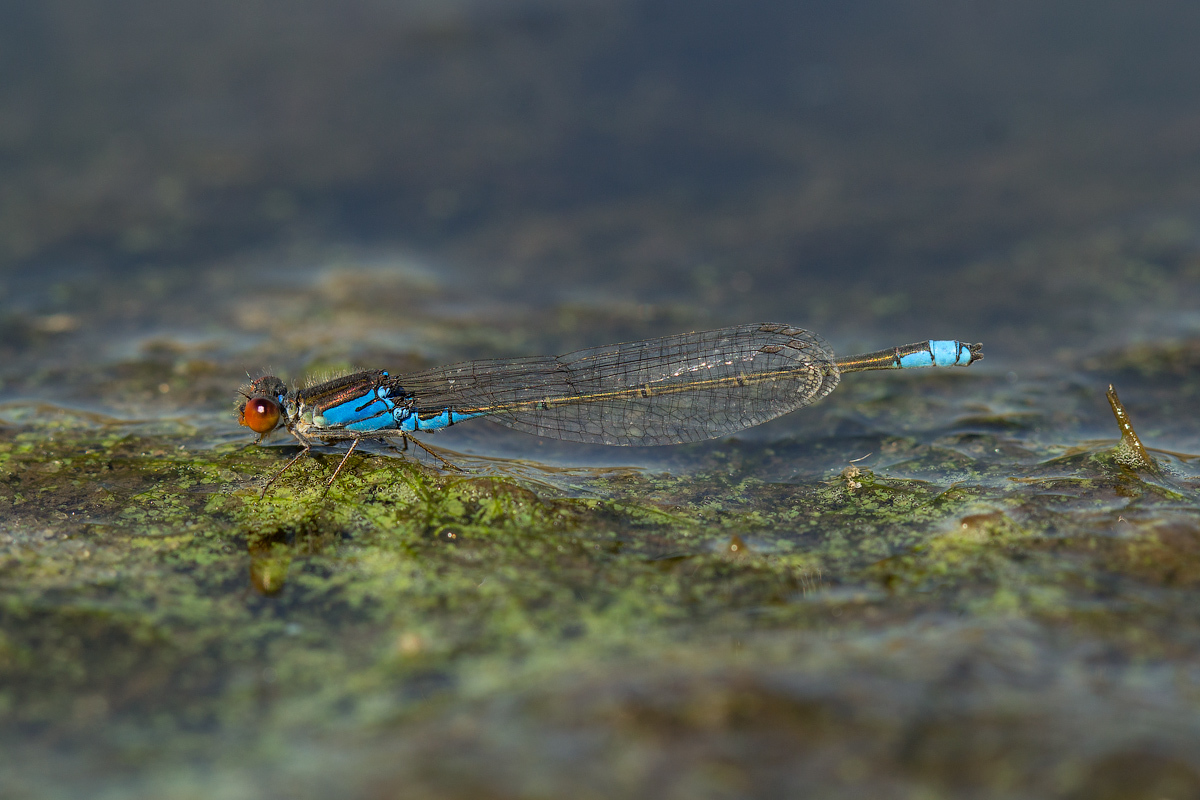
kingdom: Animalia
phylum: Arthropoda
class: Insecta
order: Odonata
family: Coenagrionidae
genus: Erythromma
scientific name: Erythromma viridulum
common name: Small red-eyed damselfly
